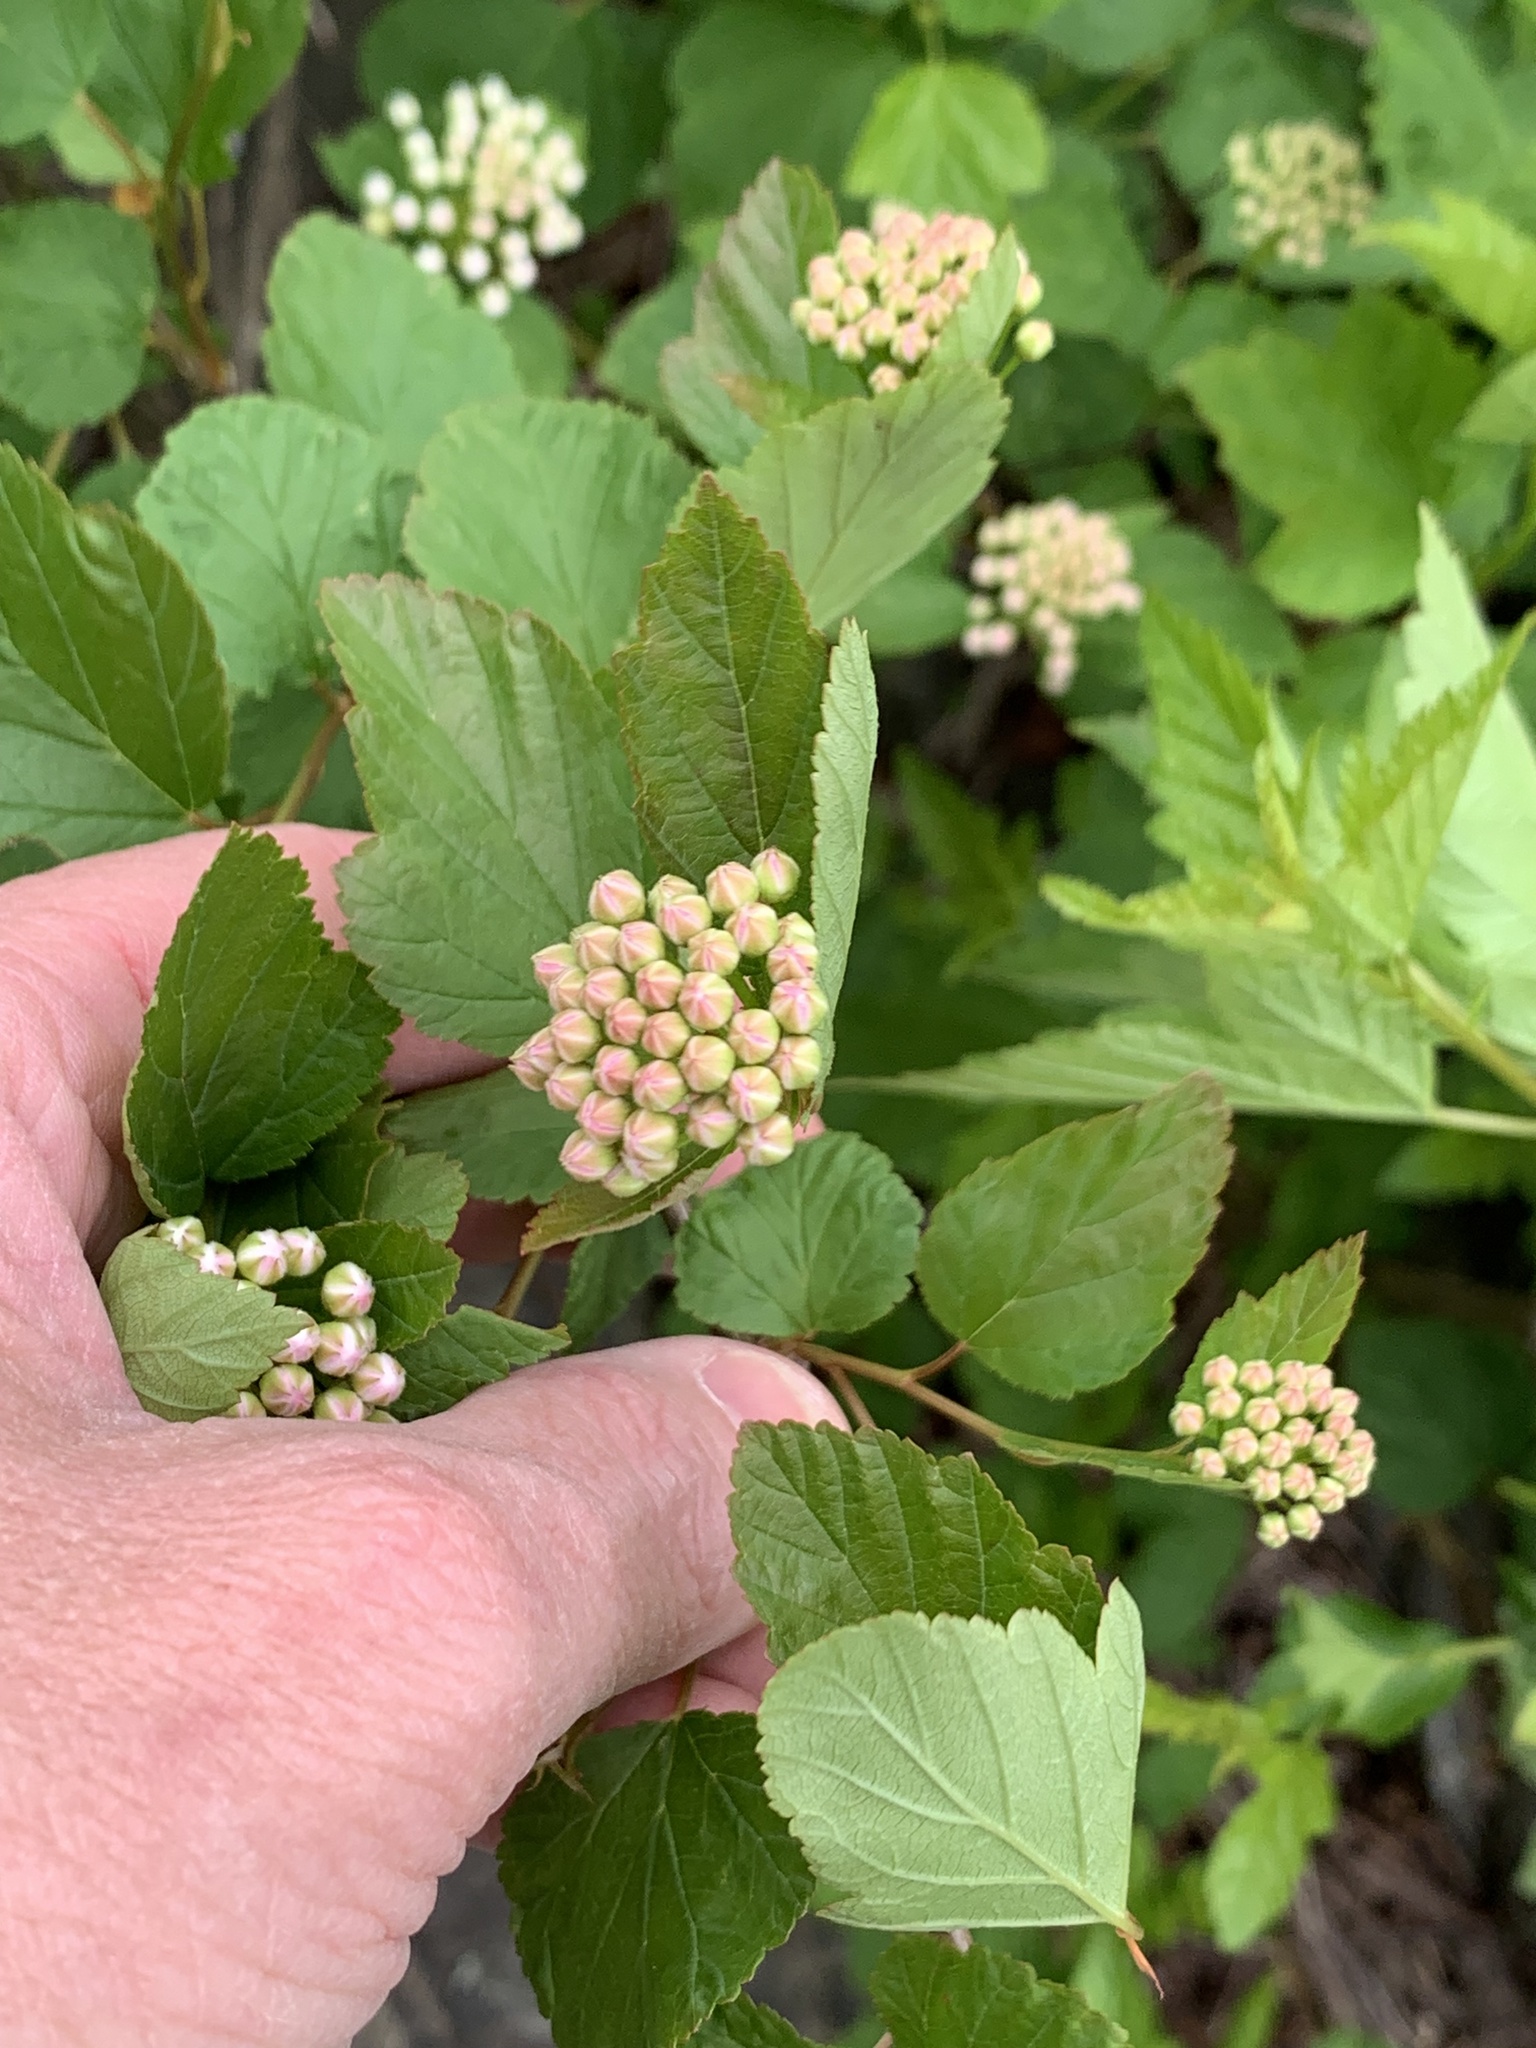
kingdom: Plantae
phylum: Tracheophyta
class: Magnoliopsida
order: Rosales
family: Rosaceae
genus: Physocarpus
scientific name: Physocarpus opulifolius
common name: Ninebark
